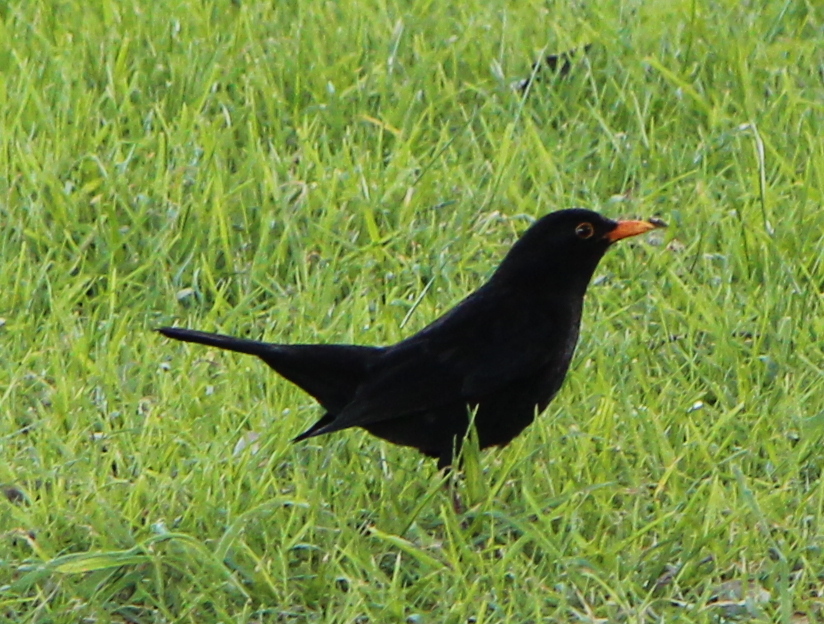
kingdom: Animalia
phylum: Chordata
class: Aves
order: Passeriformes
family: Turdidae
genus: Turdus
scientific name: Turdus merula
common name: Common blackbird
